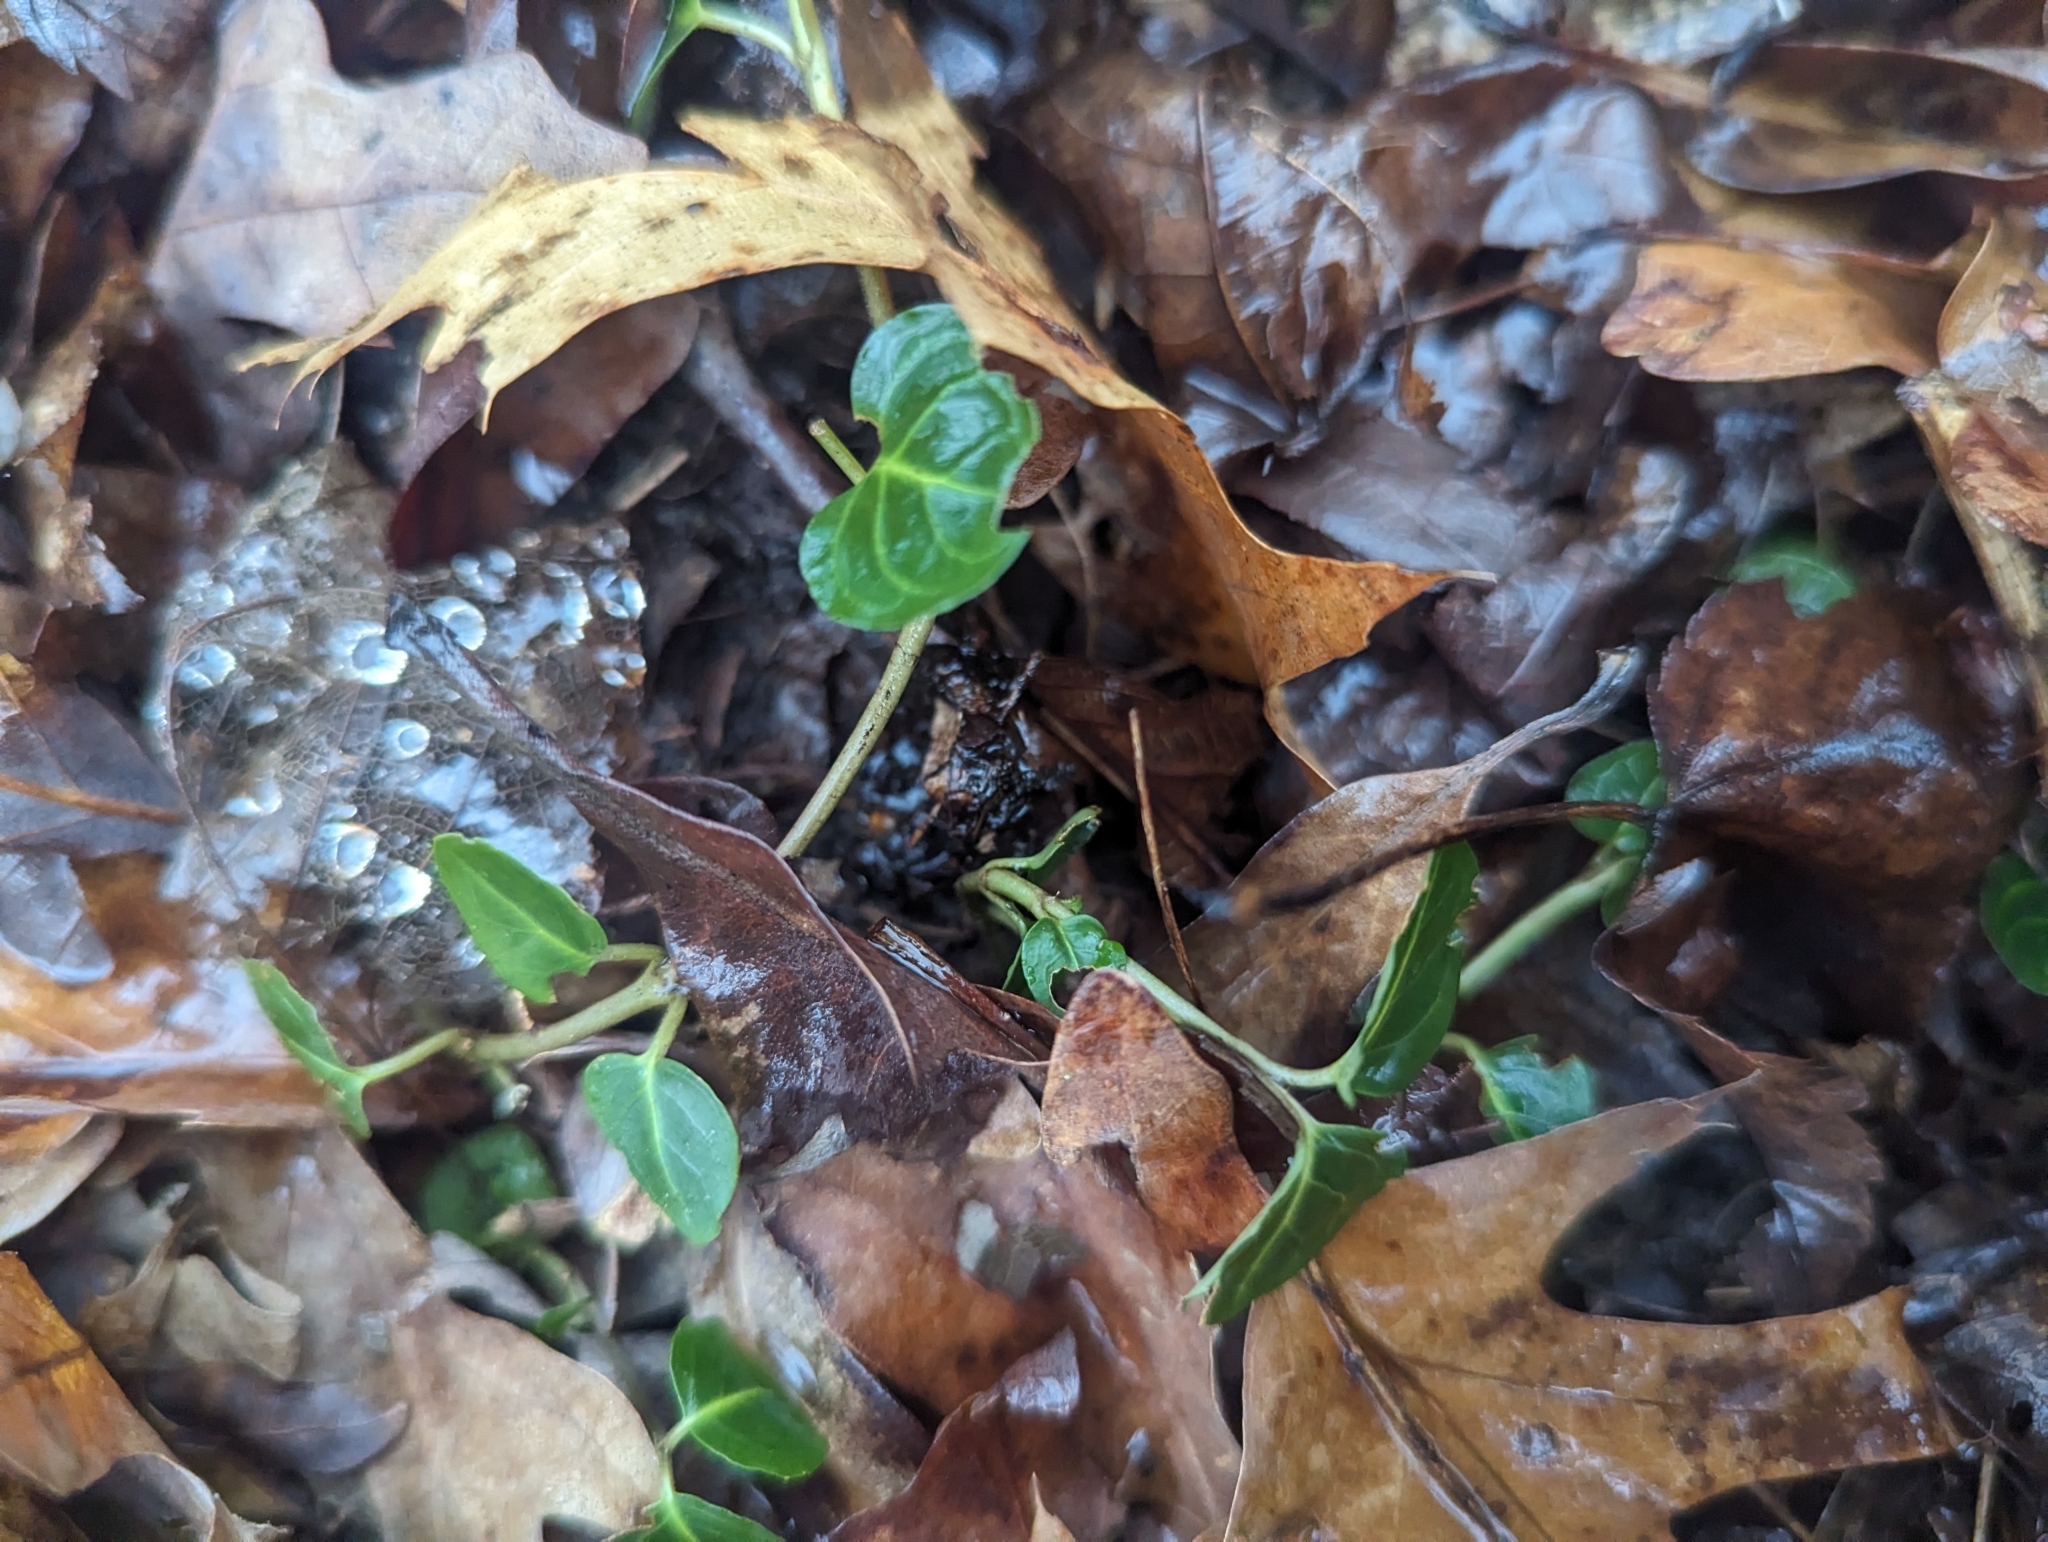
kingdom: Plantae
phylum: Tracheophyta
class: Magnoliopsida
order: Gentianales
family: Rubiaceae
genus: Mitchella
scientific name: Mitchella repens
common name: Partridge-berry
